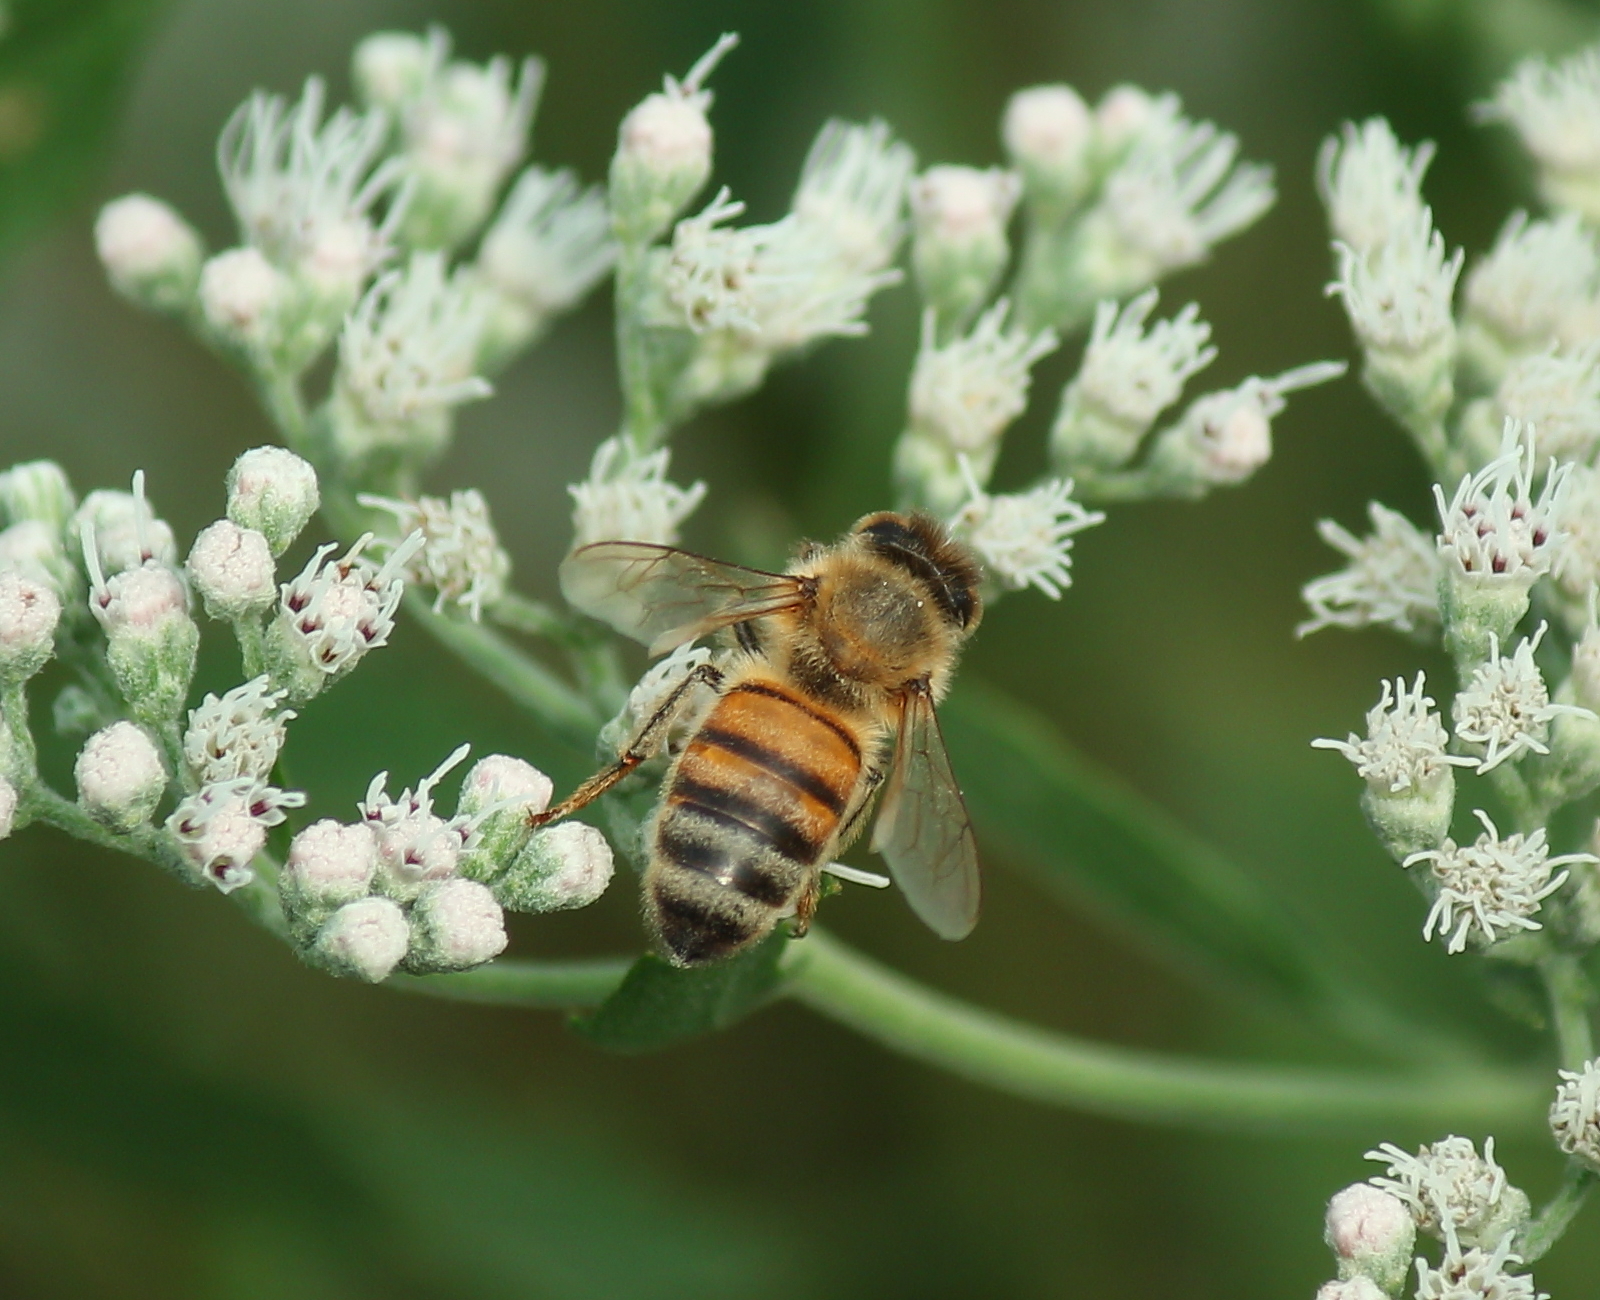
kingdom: Animalia
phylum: Arthropoda
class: Insecta
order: Hymenoptera
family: Apidae
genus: Apis
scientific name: Apis mellifera
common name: Honey bee
